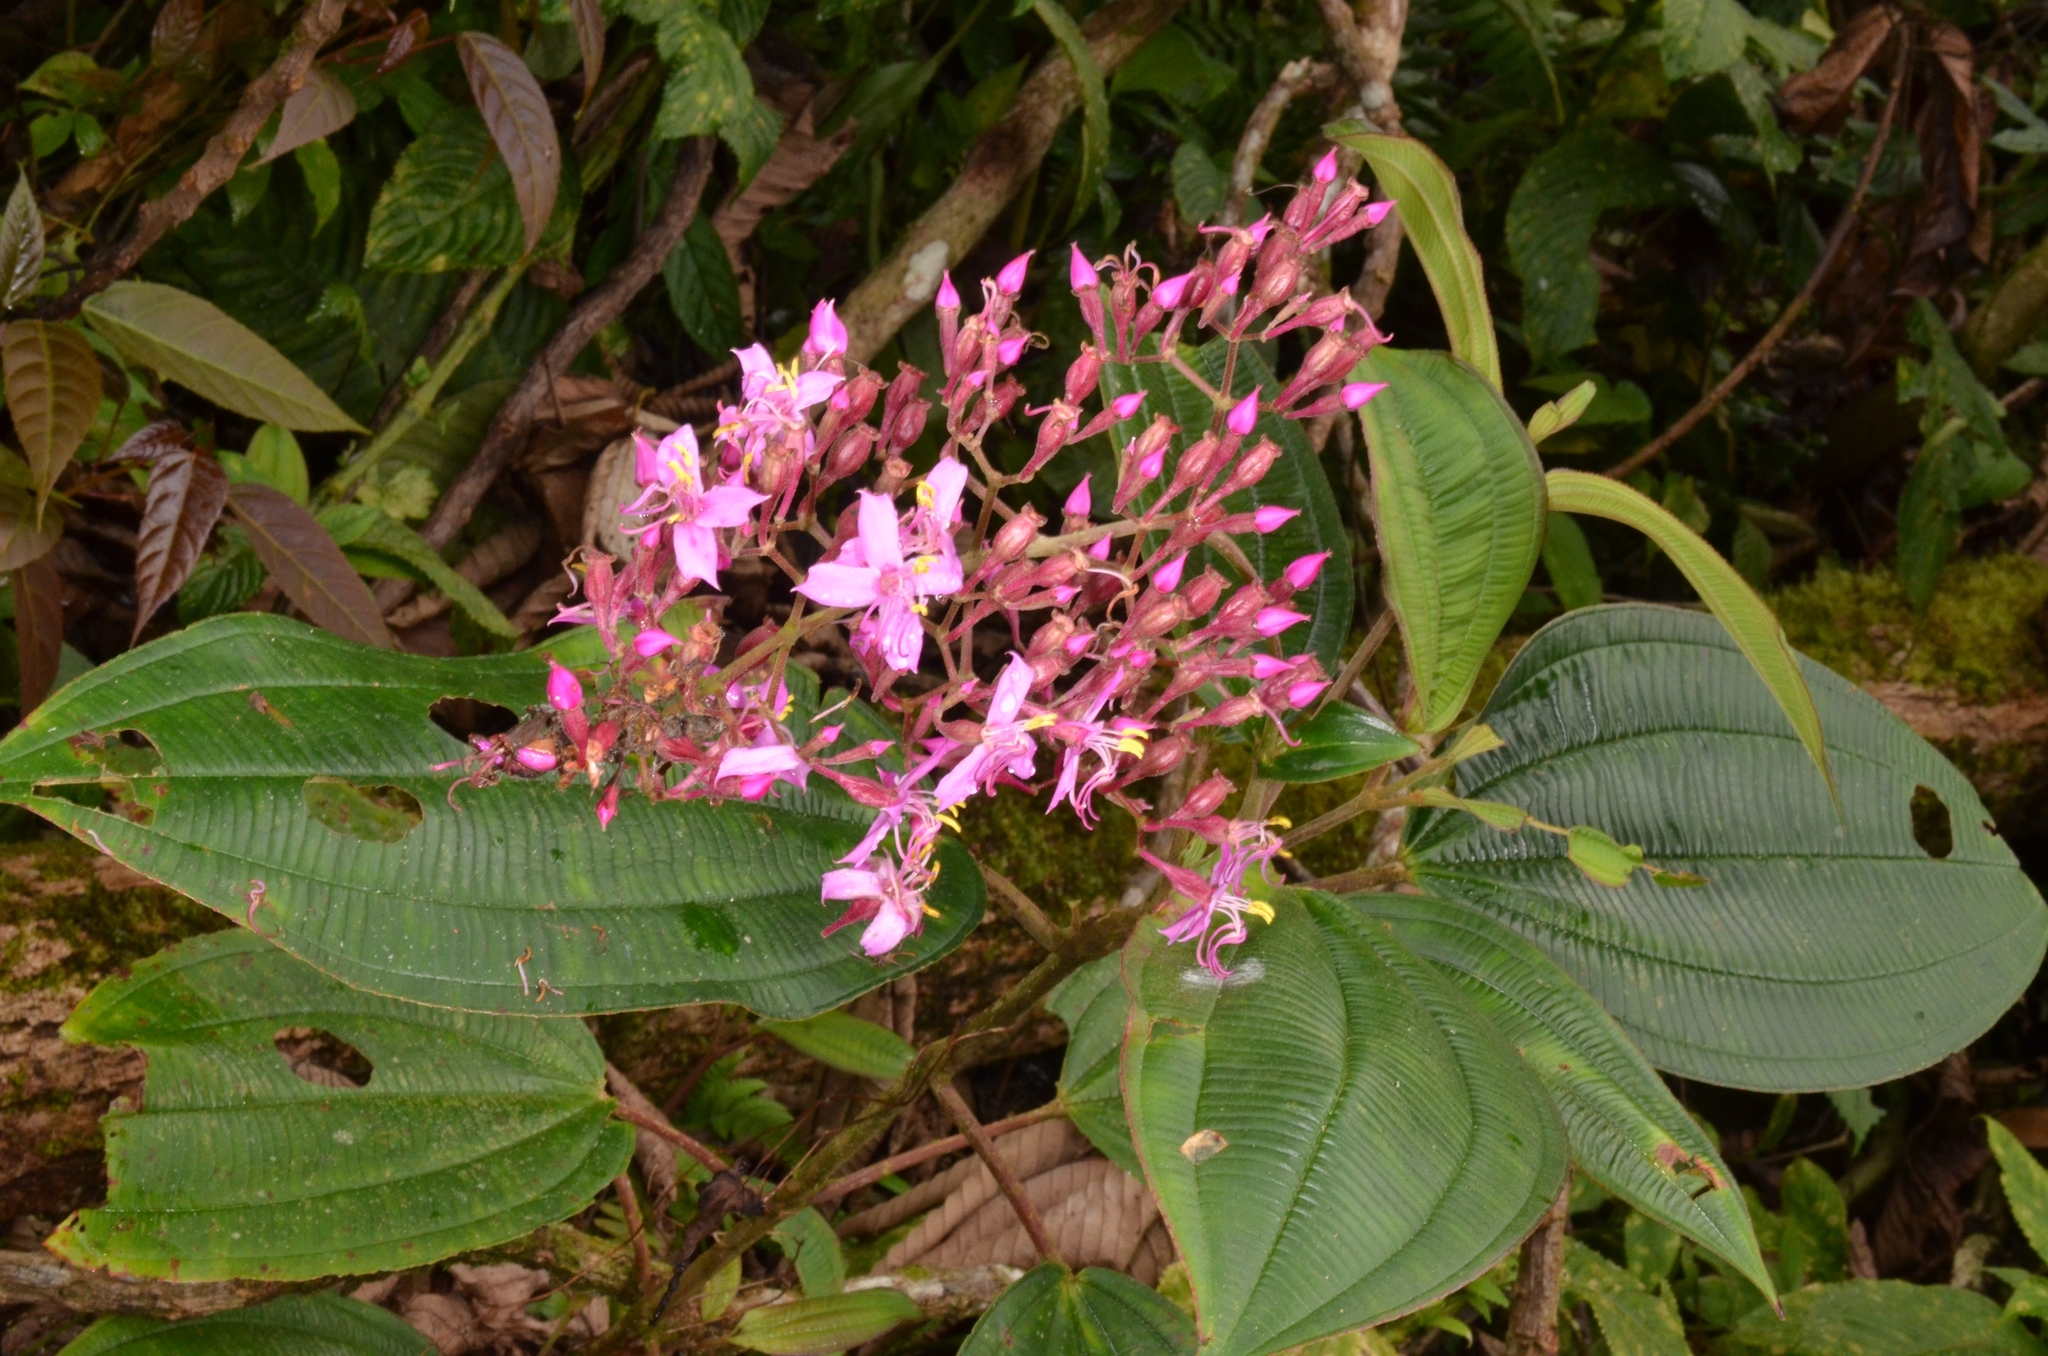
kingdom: Plantae
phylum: Tracheophyta
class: Magnoliopsida
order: Myrtales
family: Melastomataceae
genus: Oxyspora
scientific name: Oxyspora paniculata
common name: Bristletips
